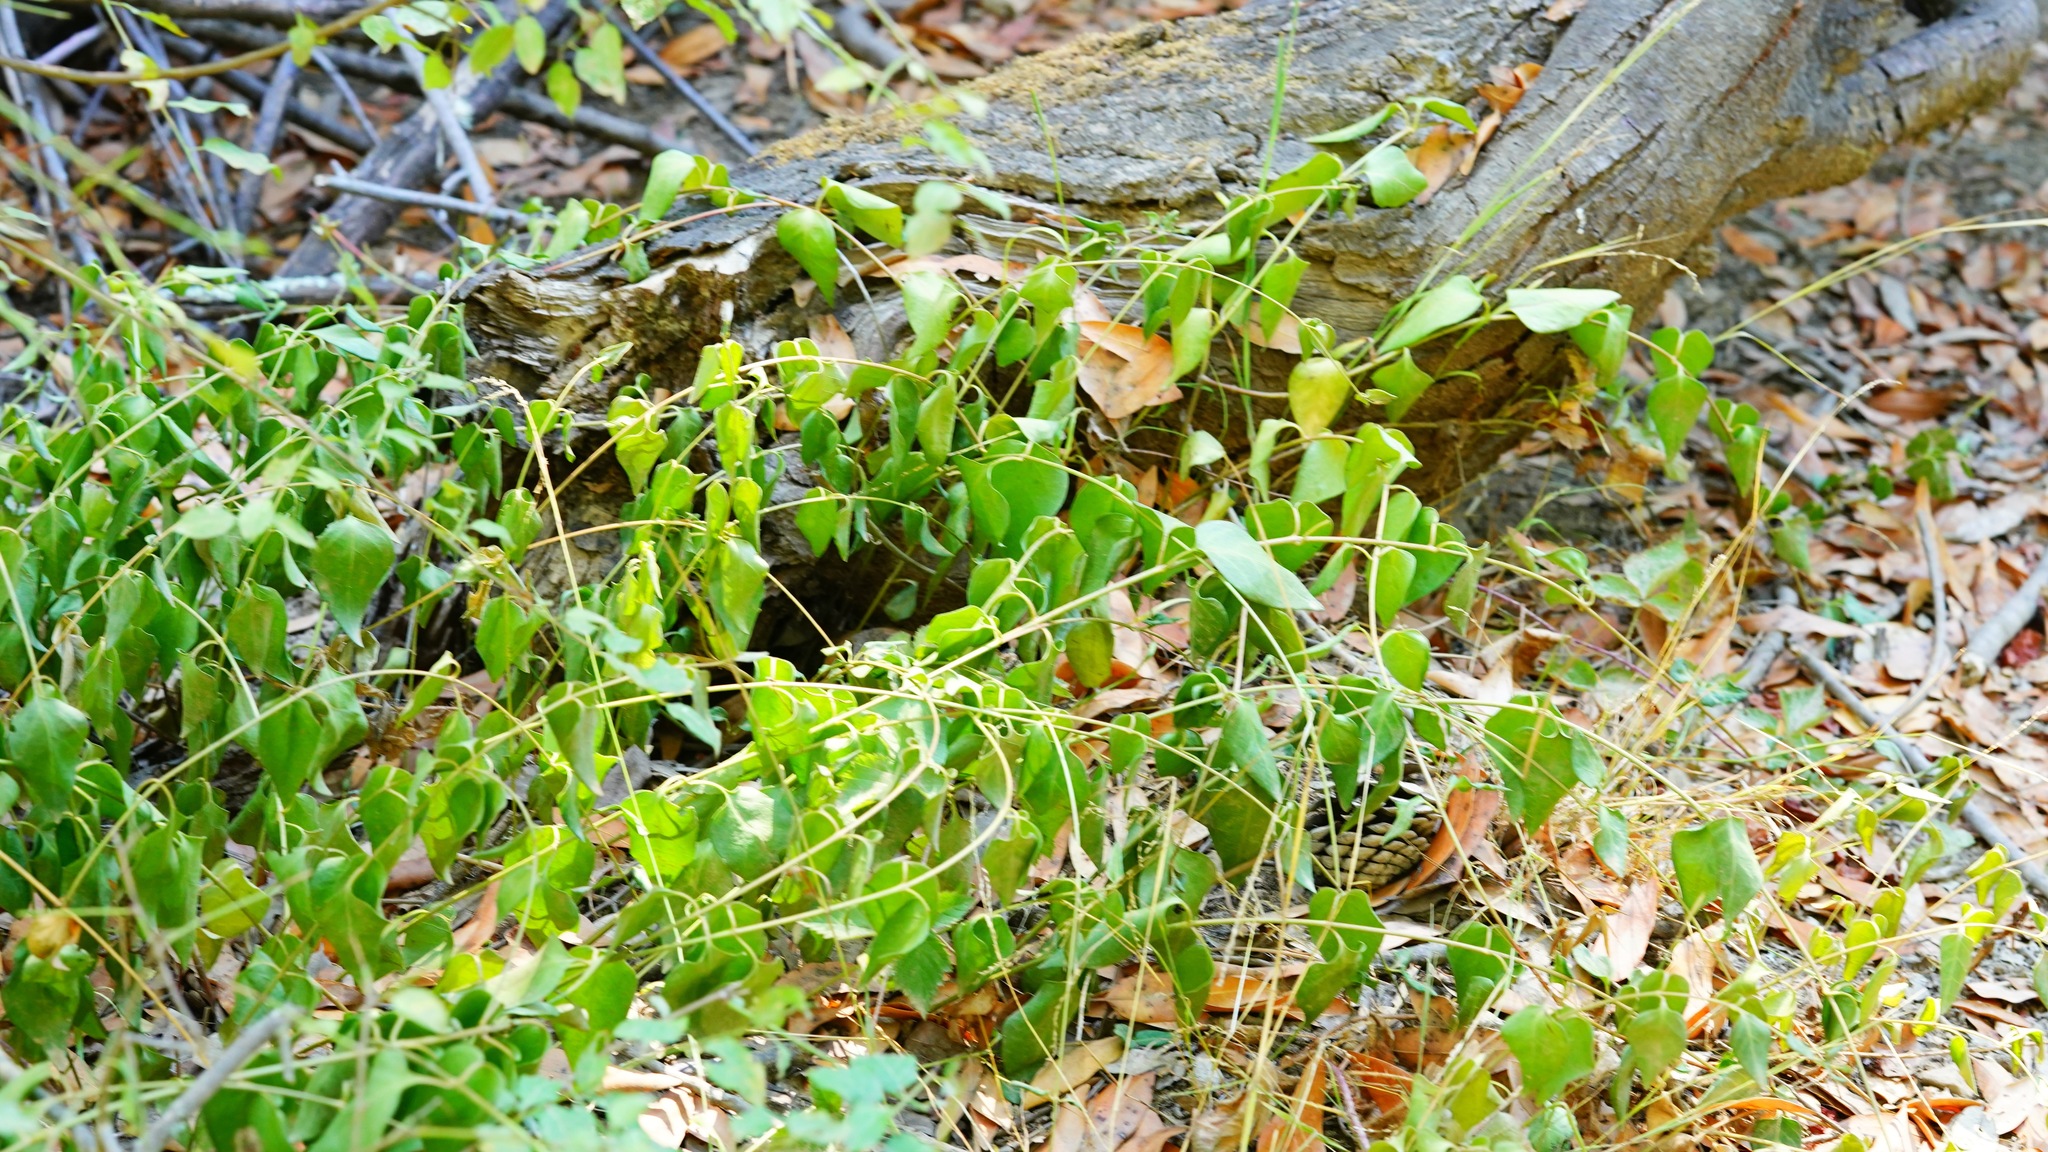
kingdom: Plantae
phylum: Tracheophyta
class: Magnoliopsida
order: Gentianales
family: Apocynaceae
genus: Vinca
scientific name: Vinca major
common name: Greater periwinkle
